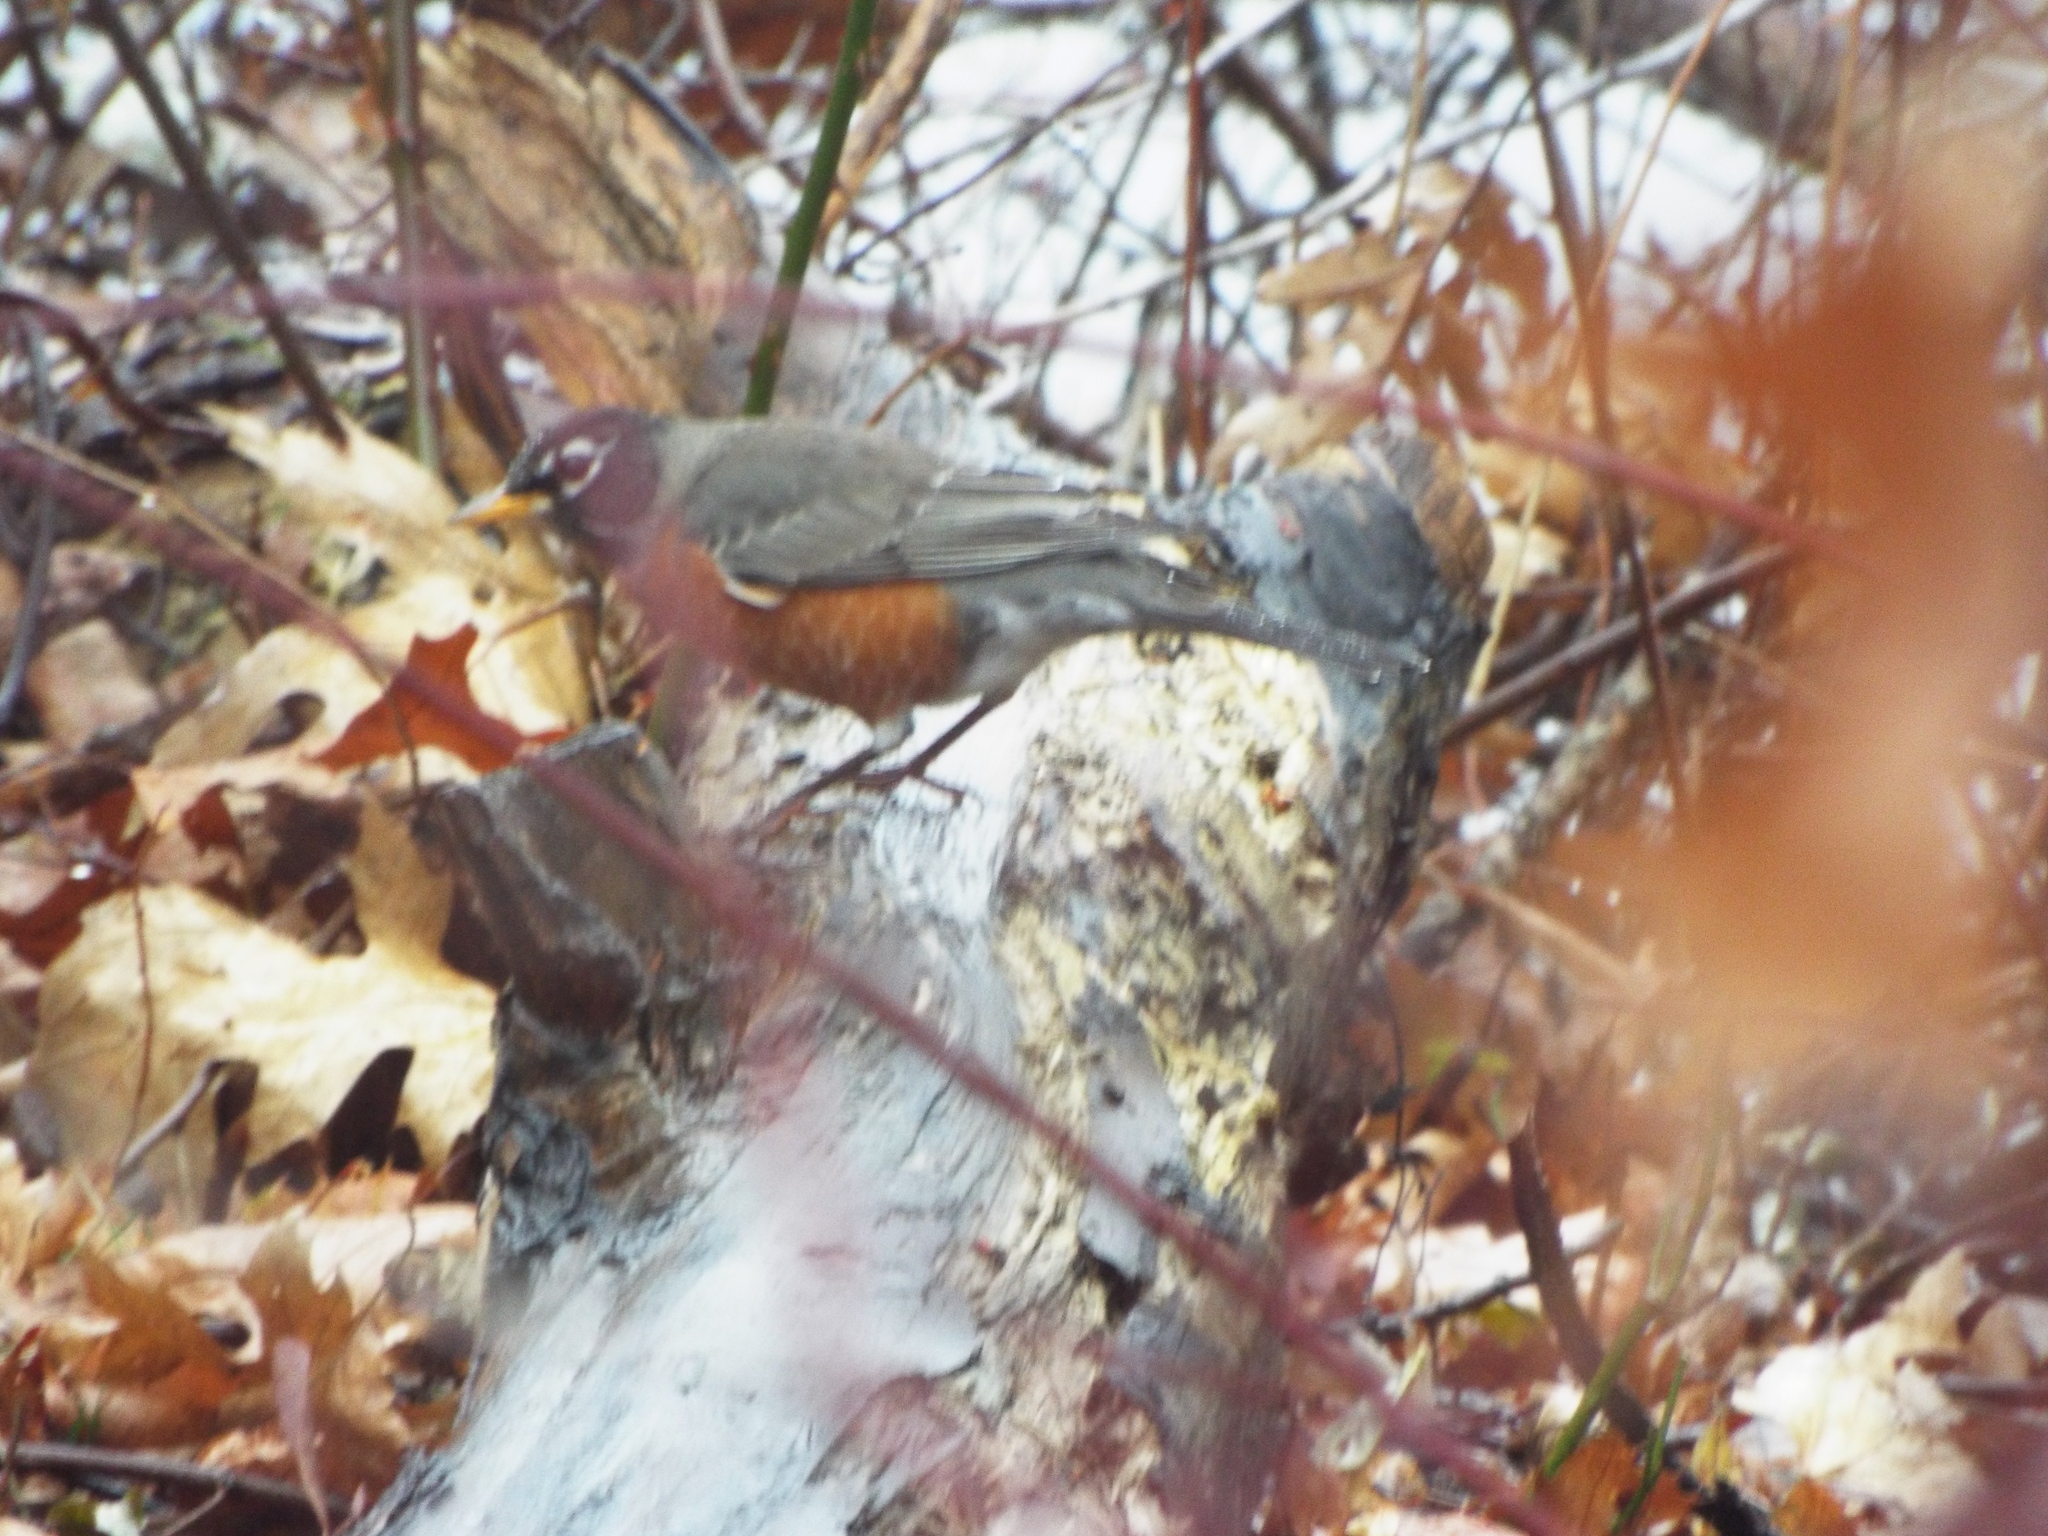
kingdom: Animalia
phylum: Chordata
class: Aves
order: Passeriformes
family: Turdidae
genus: Turdus
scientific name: Turdus migratorius
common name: American robin
